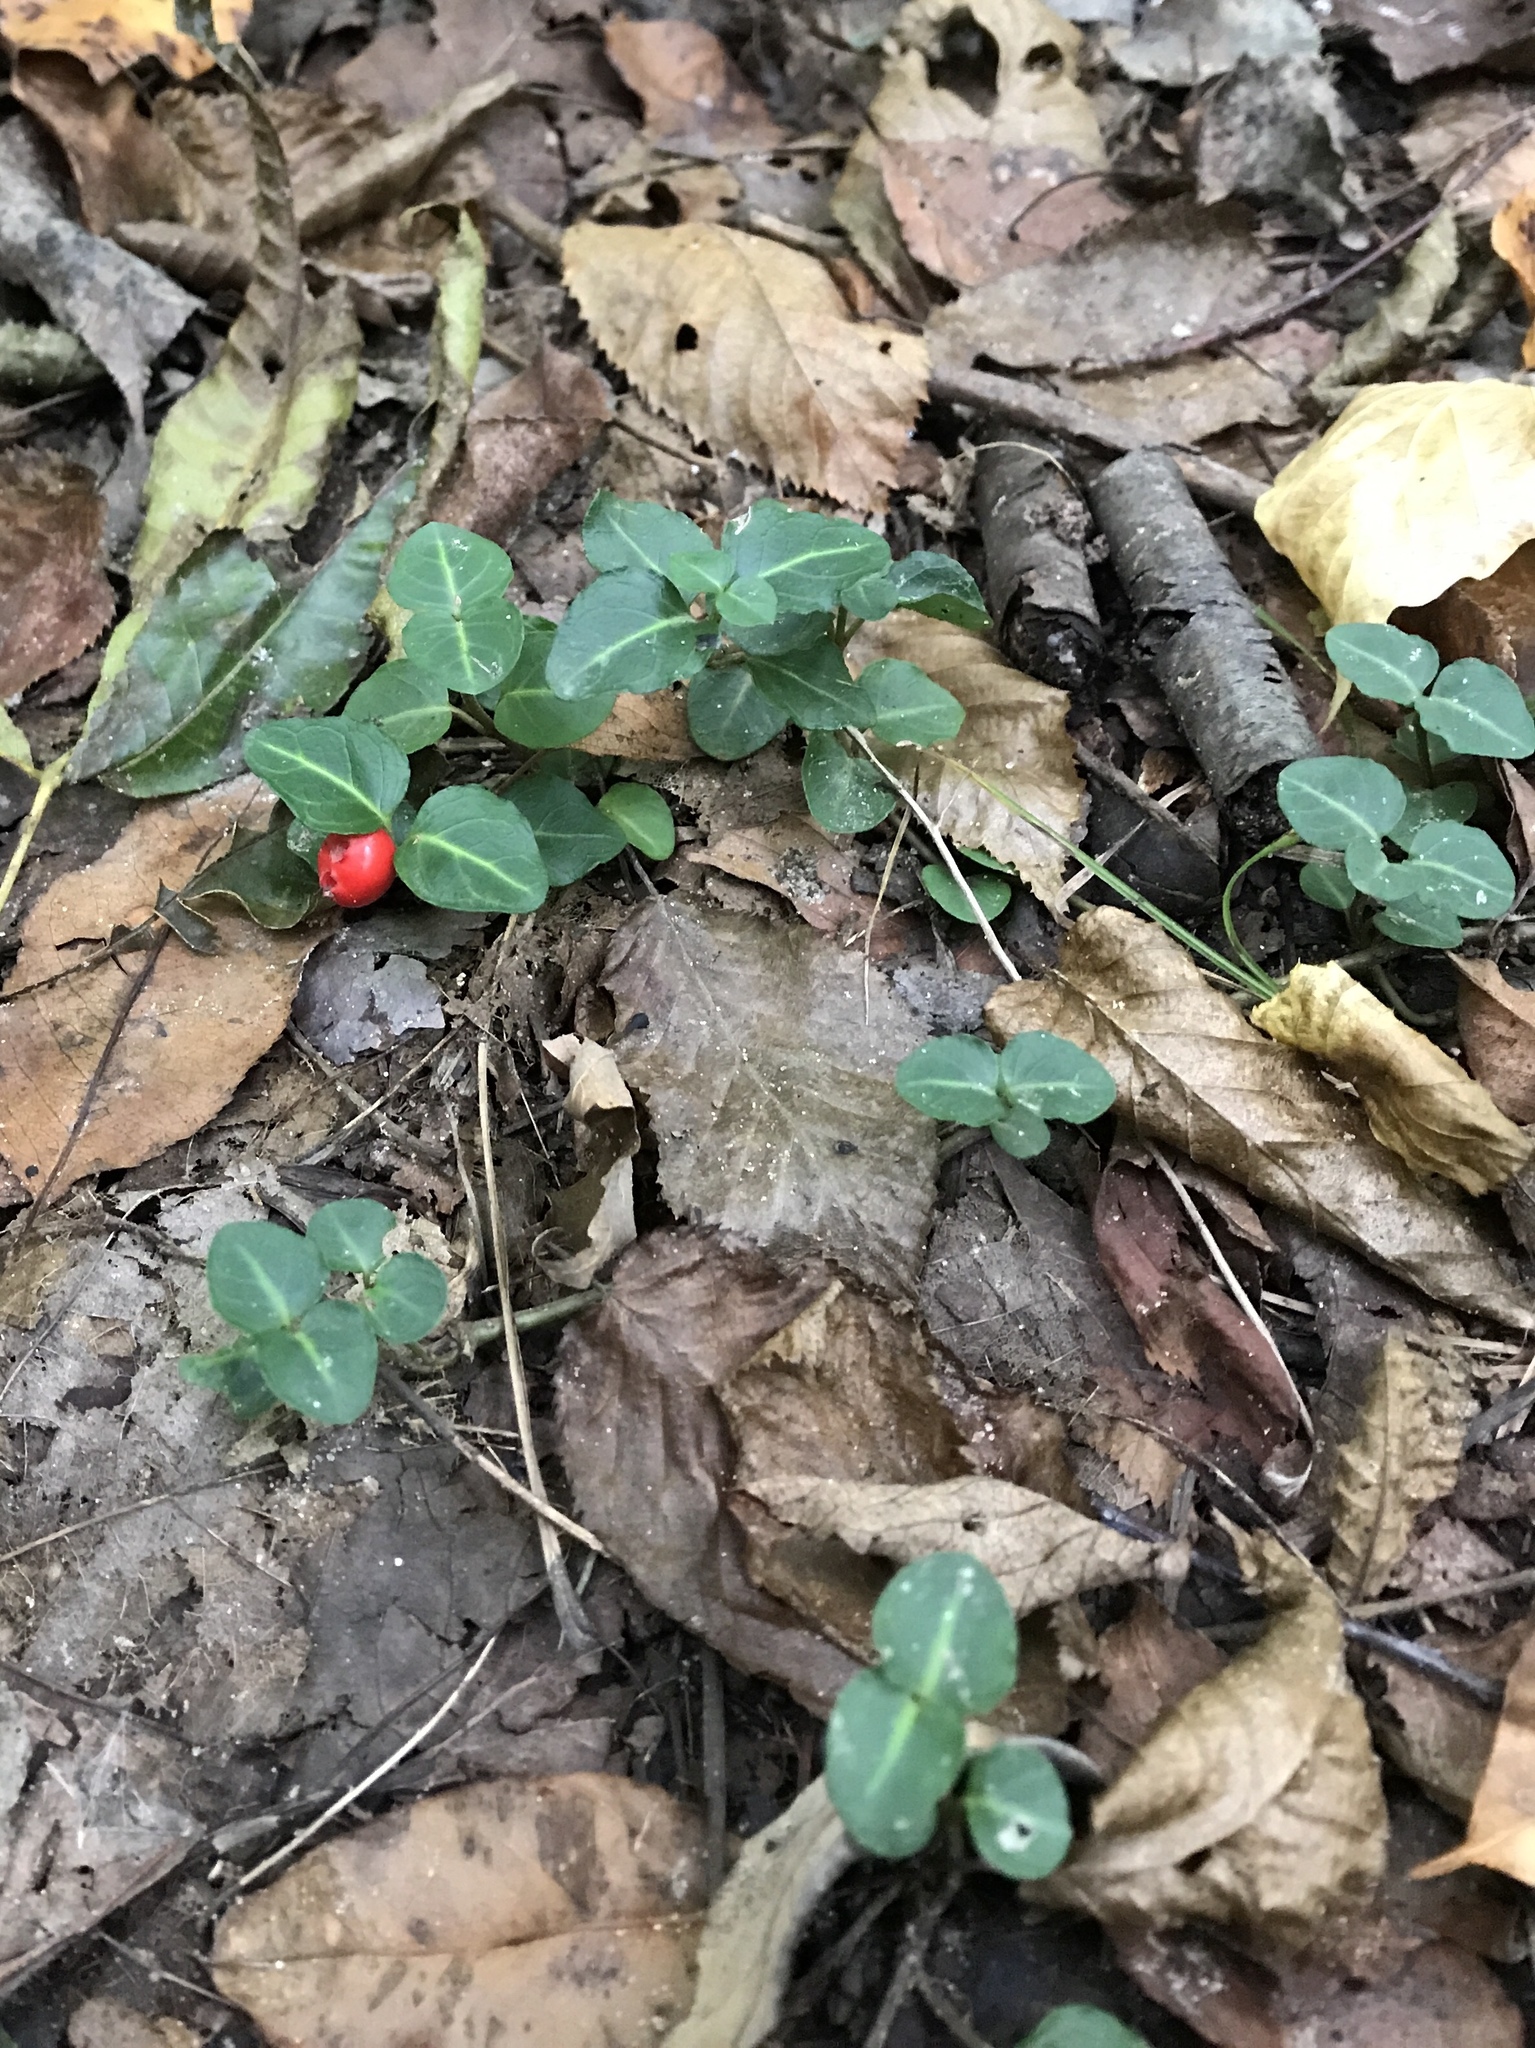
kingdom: Plantae
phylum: Tracheophyta
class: Magnoliopsida
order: Gentianales
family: Rubiaceae
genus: Mitchella
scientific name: Mitchella repens
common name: Partridge-berry
